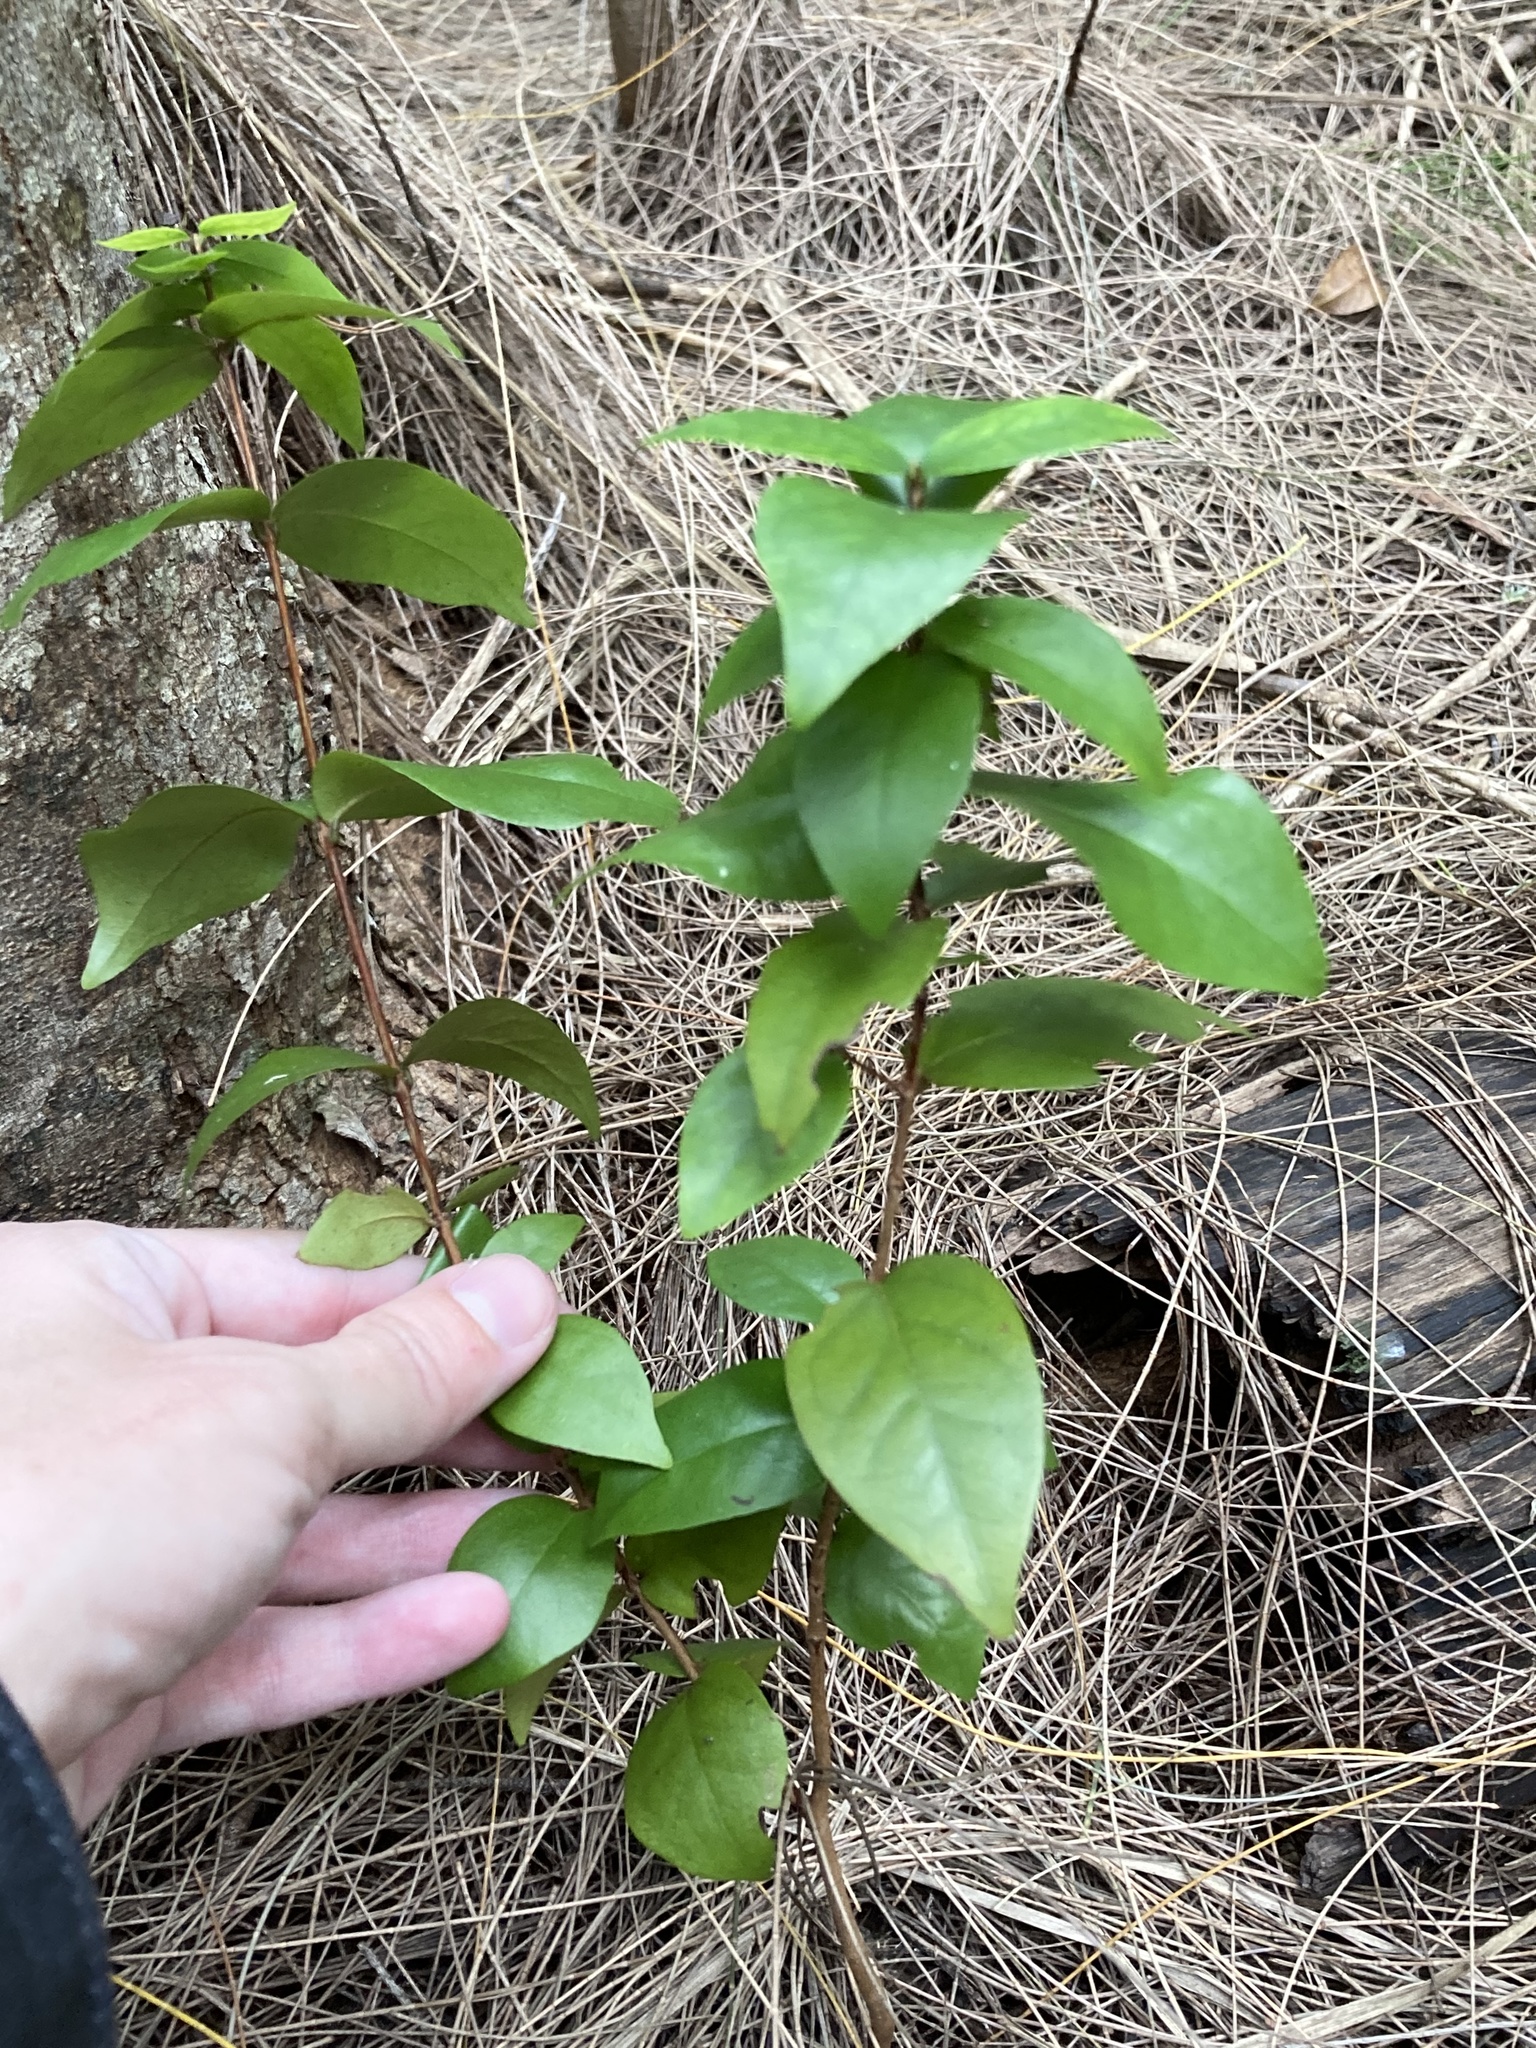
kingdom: Plantae
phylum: Tracheophyta
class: Magnoliopsida
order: Myrtales
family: Myrtaceae
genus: Eugenia
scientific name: Eugenia uniflora
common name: Surinam cherry
